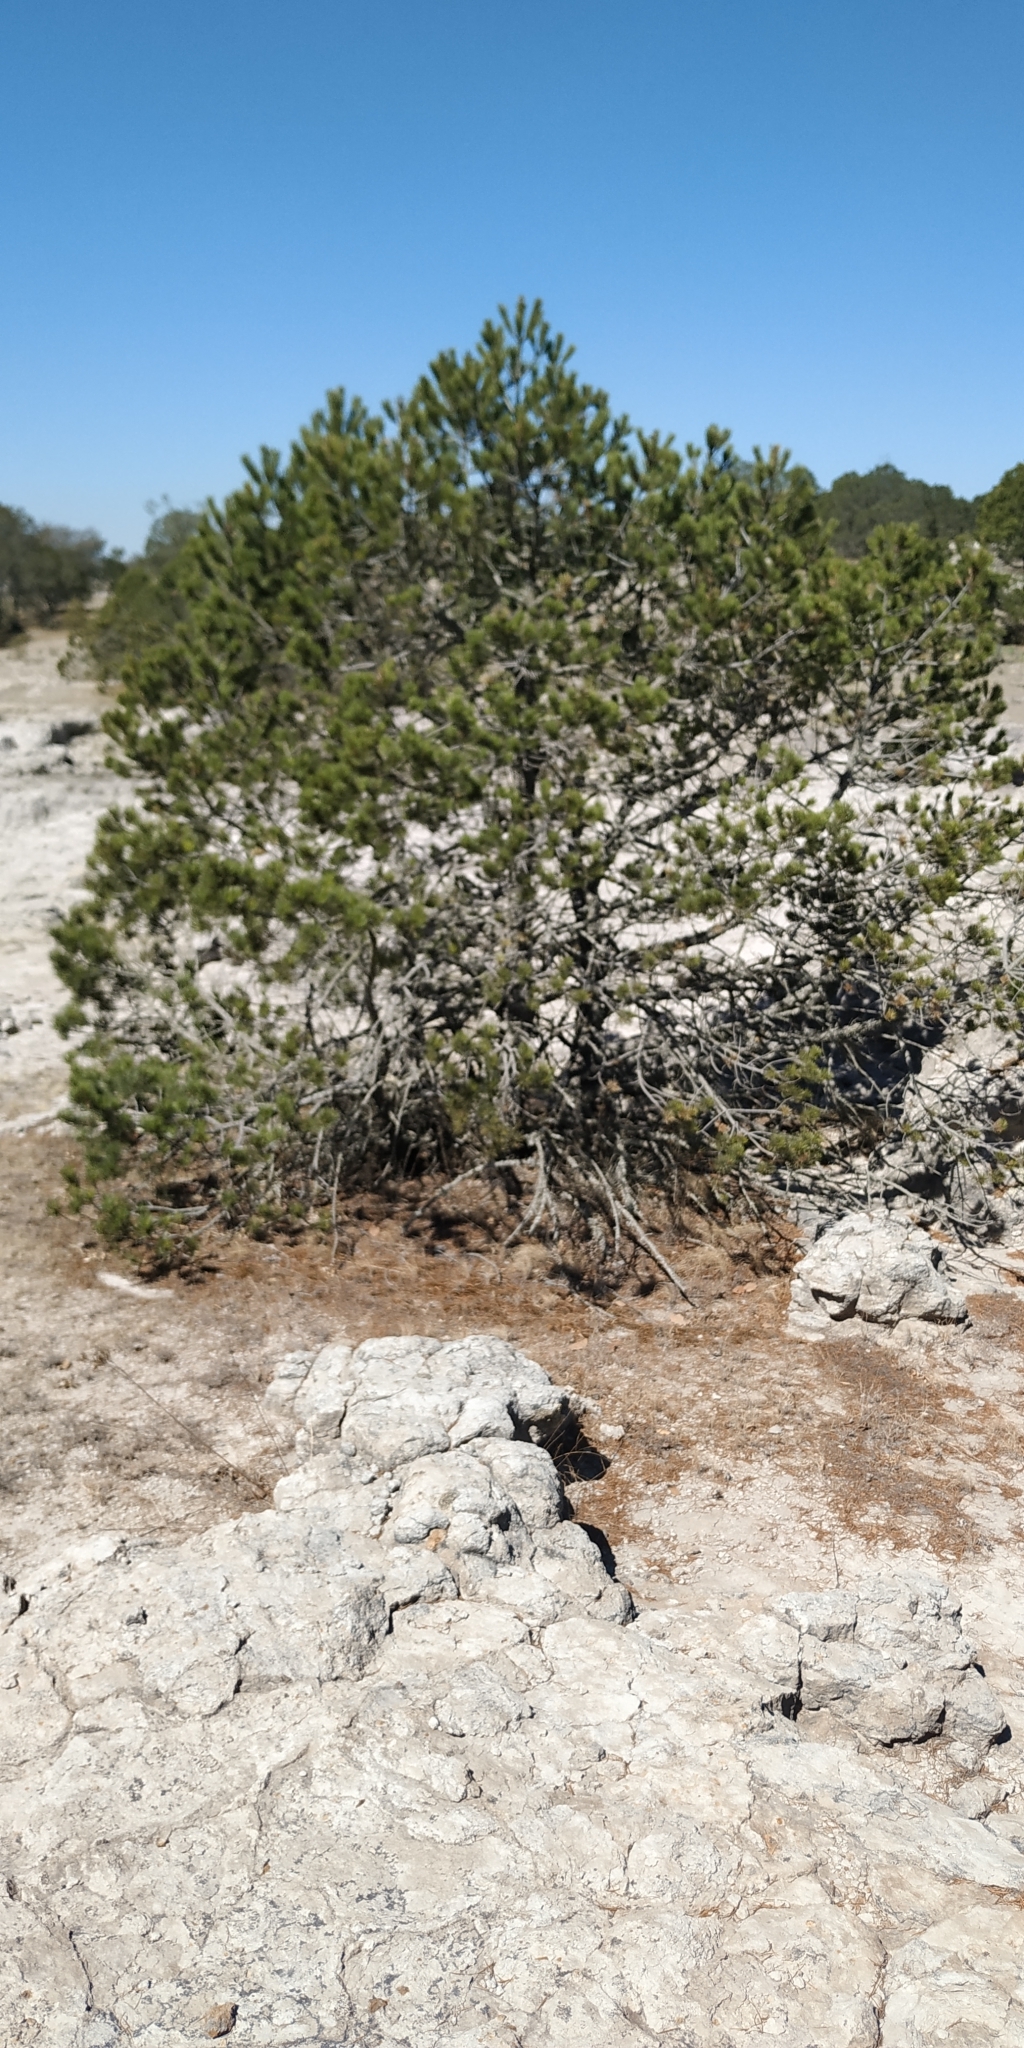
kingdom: Plantae
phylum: Tracheophyta
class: Pinopsida
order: Pinales
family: Pinaceae
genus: Pinus
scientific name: Pinus cembroides
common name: Mexican nut pine
